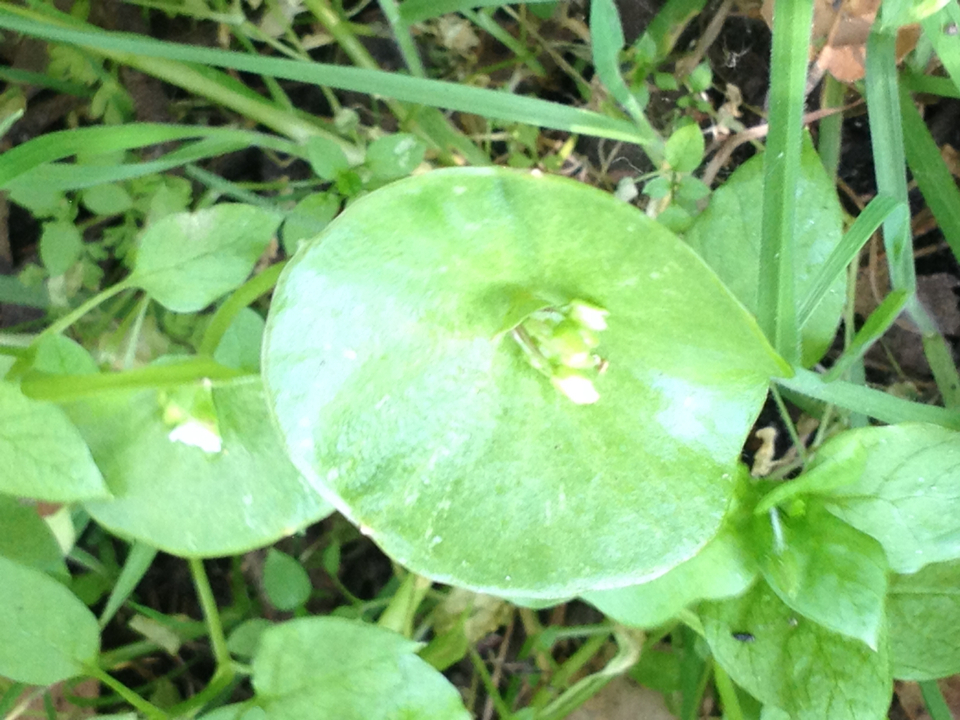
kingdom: Plantae
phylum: Tracheophyta
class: Magnoliopsida
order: Caryophyllales
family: Montiaceae
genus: Claytonia
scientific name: Claytonia perfoliata
